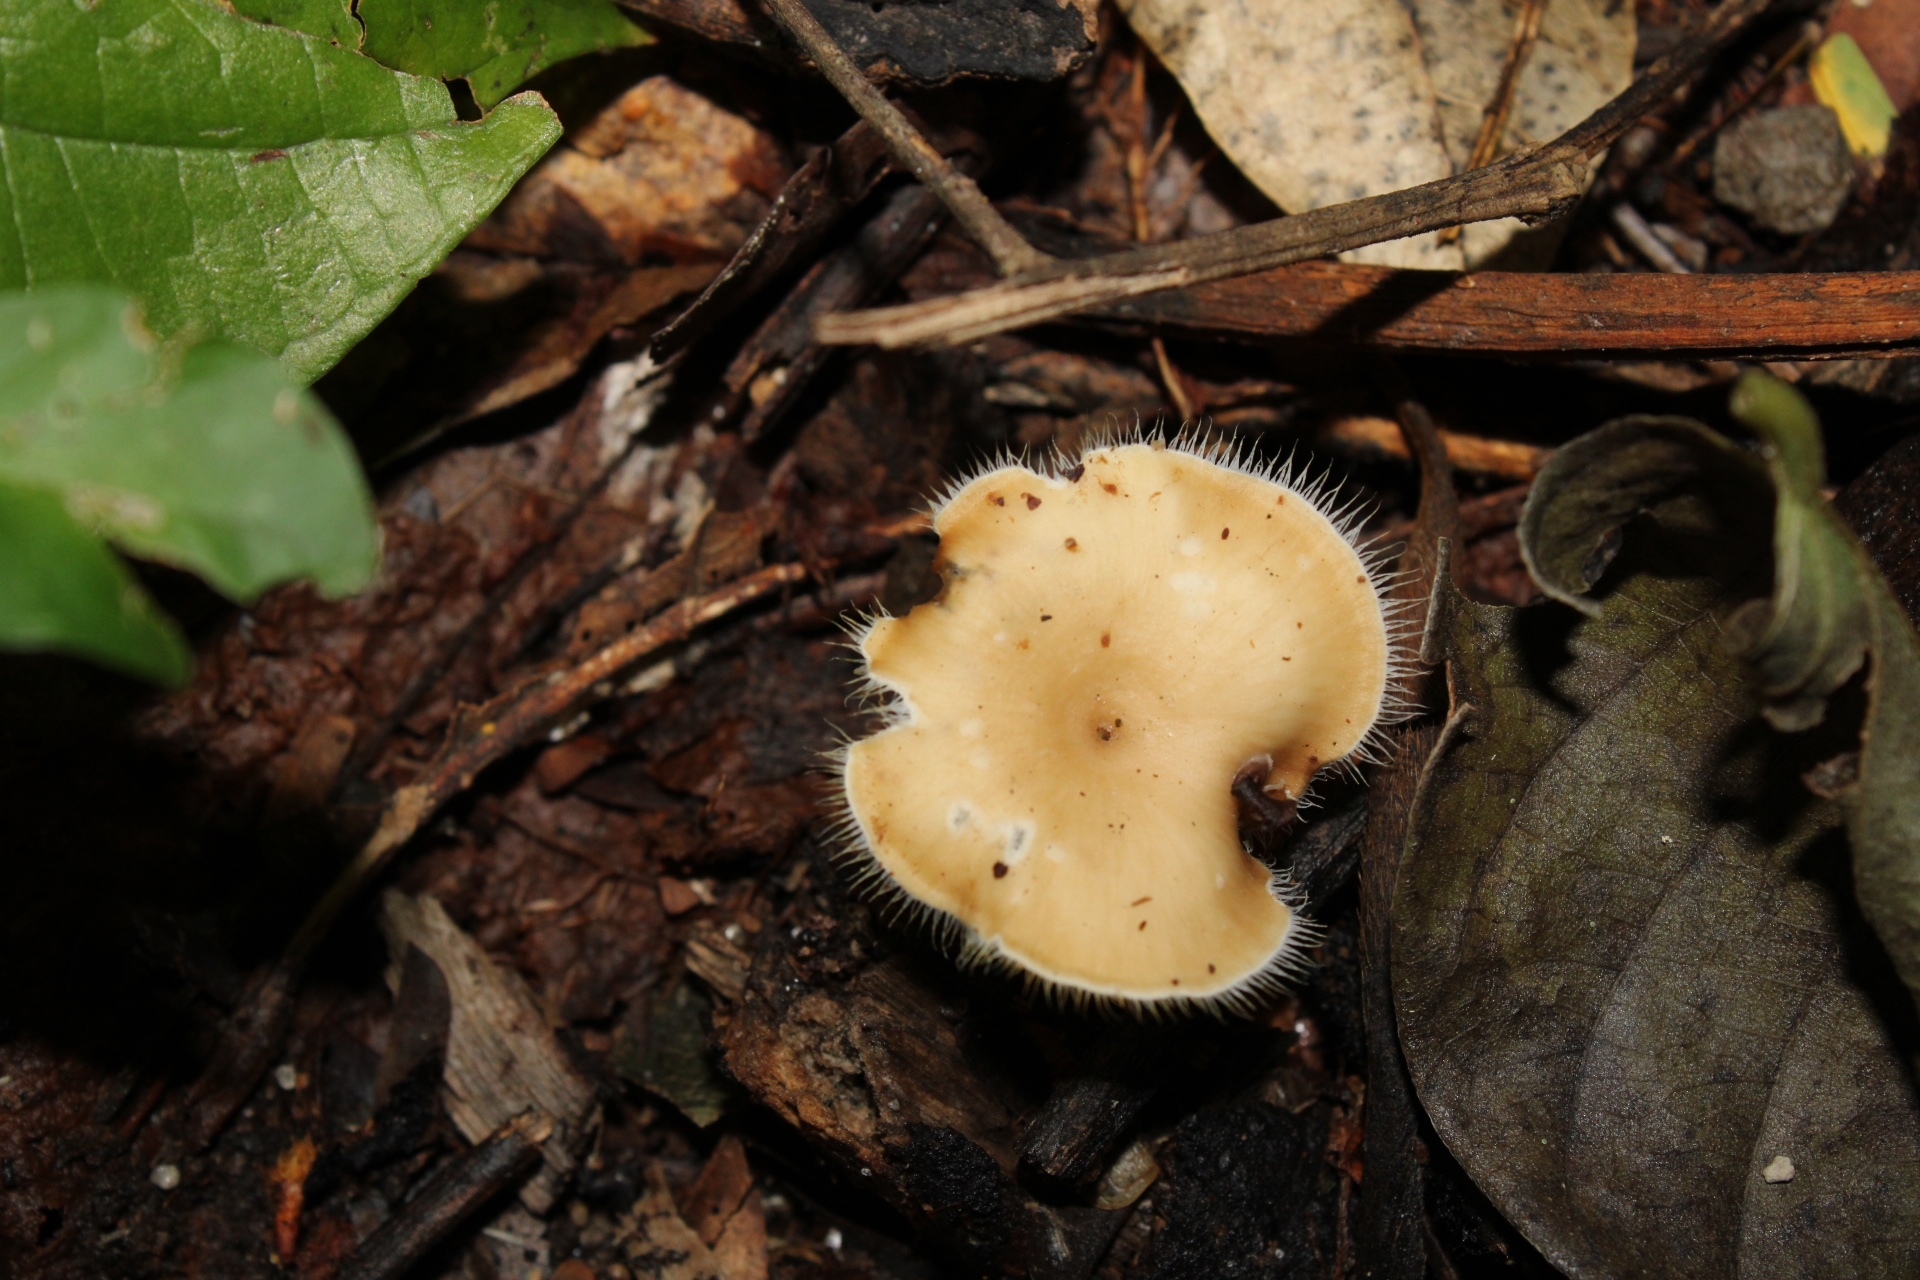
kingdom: Fungi
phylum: Basidiomycota
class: Agaricomycetes
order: Polyporales
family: Polyporaceae
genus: Lentinus
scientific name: Lentinus flexipes
